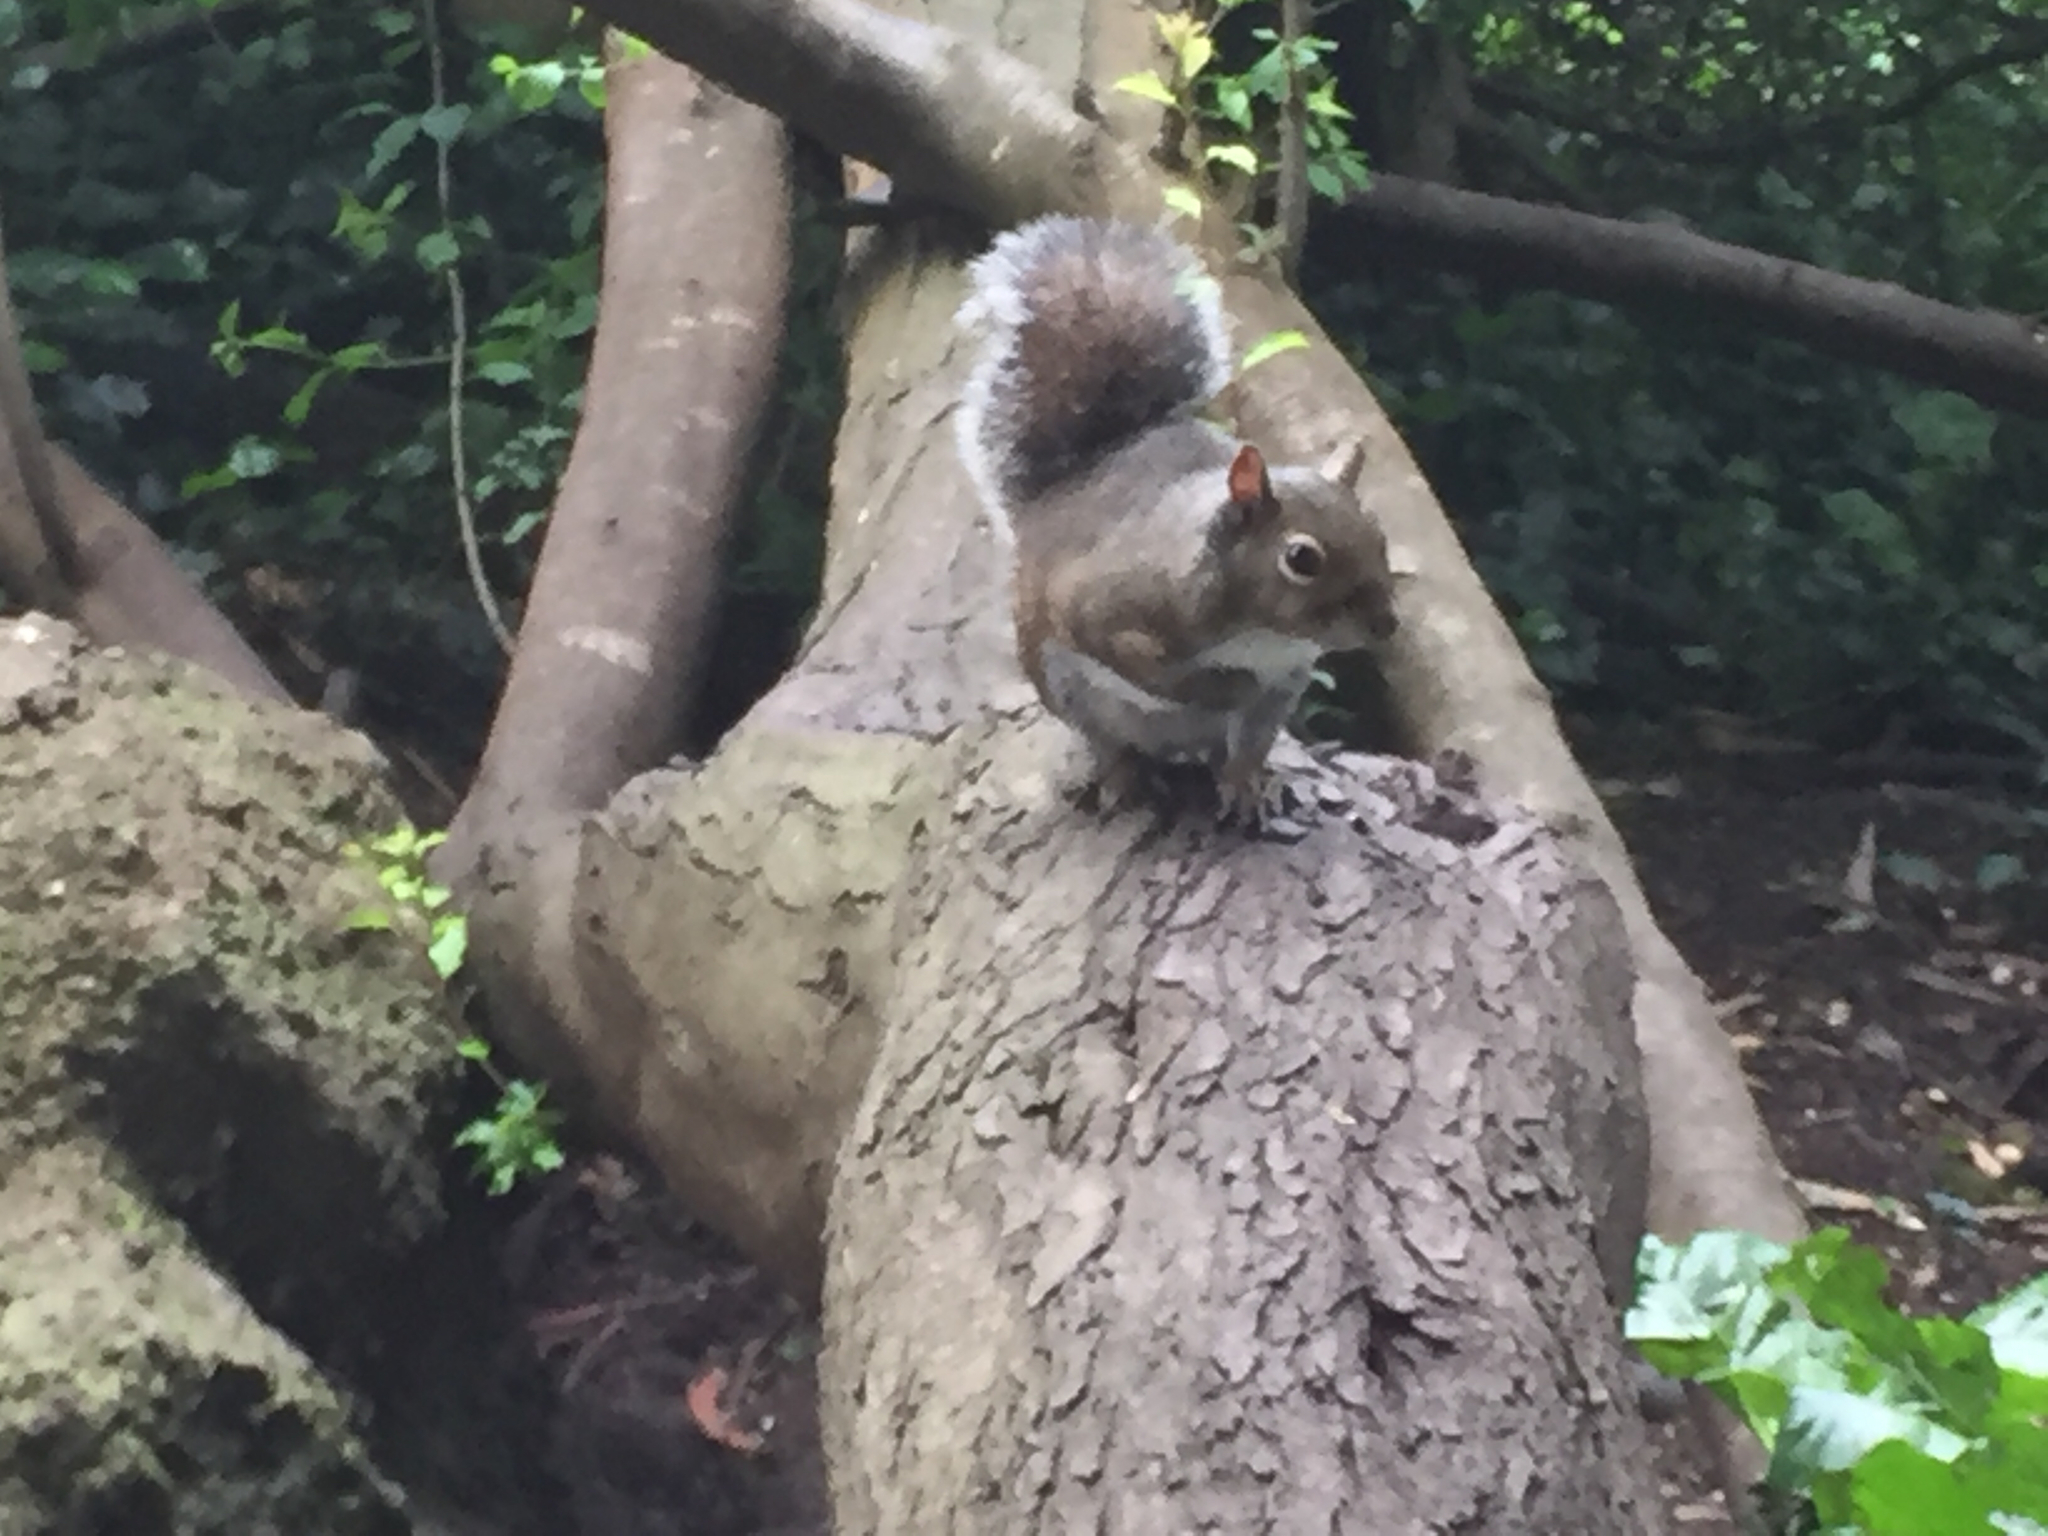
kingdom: Animalia
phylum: Chordata
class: Mammalia
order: Rodentia
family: Sciuridae
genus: Sciurus
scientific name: Sciurus carolinensis
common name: Eastern gray squirrel
